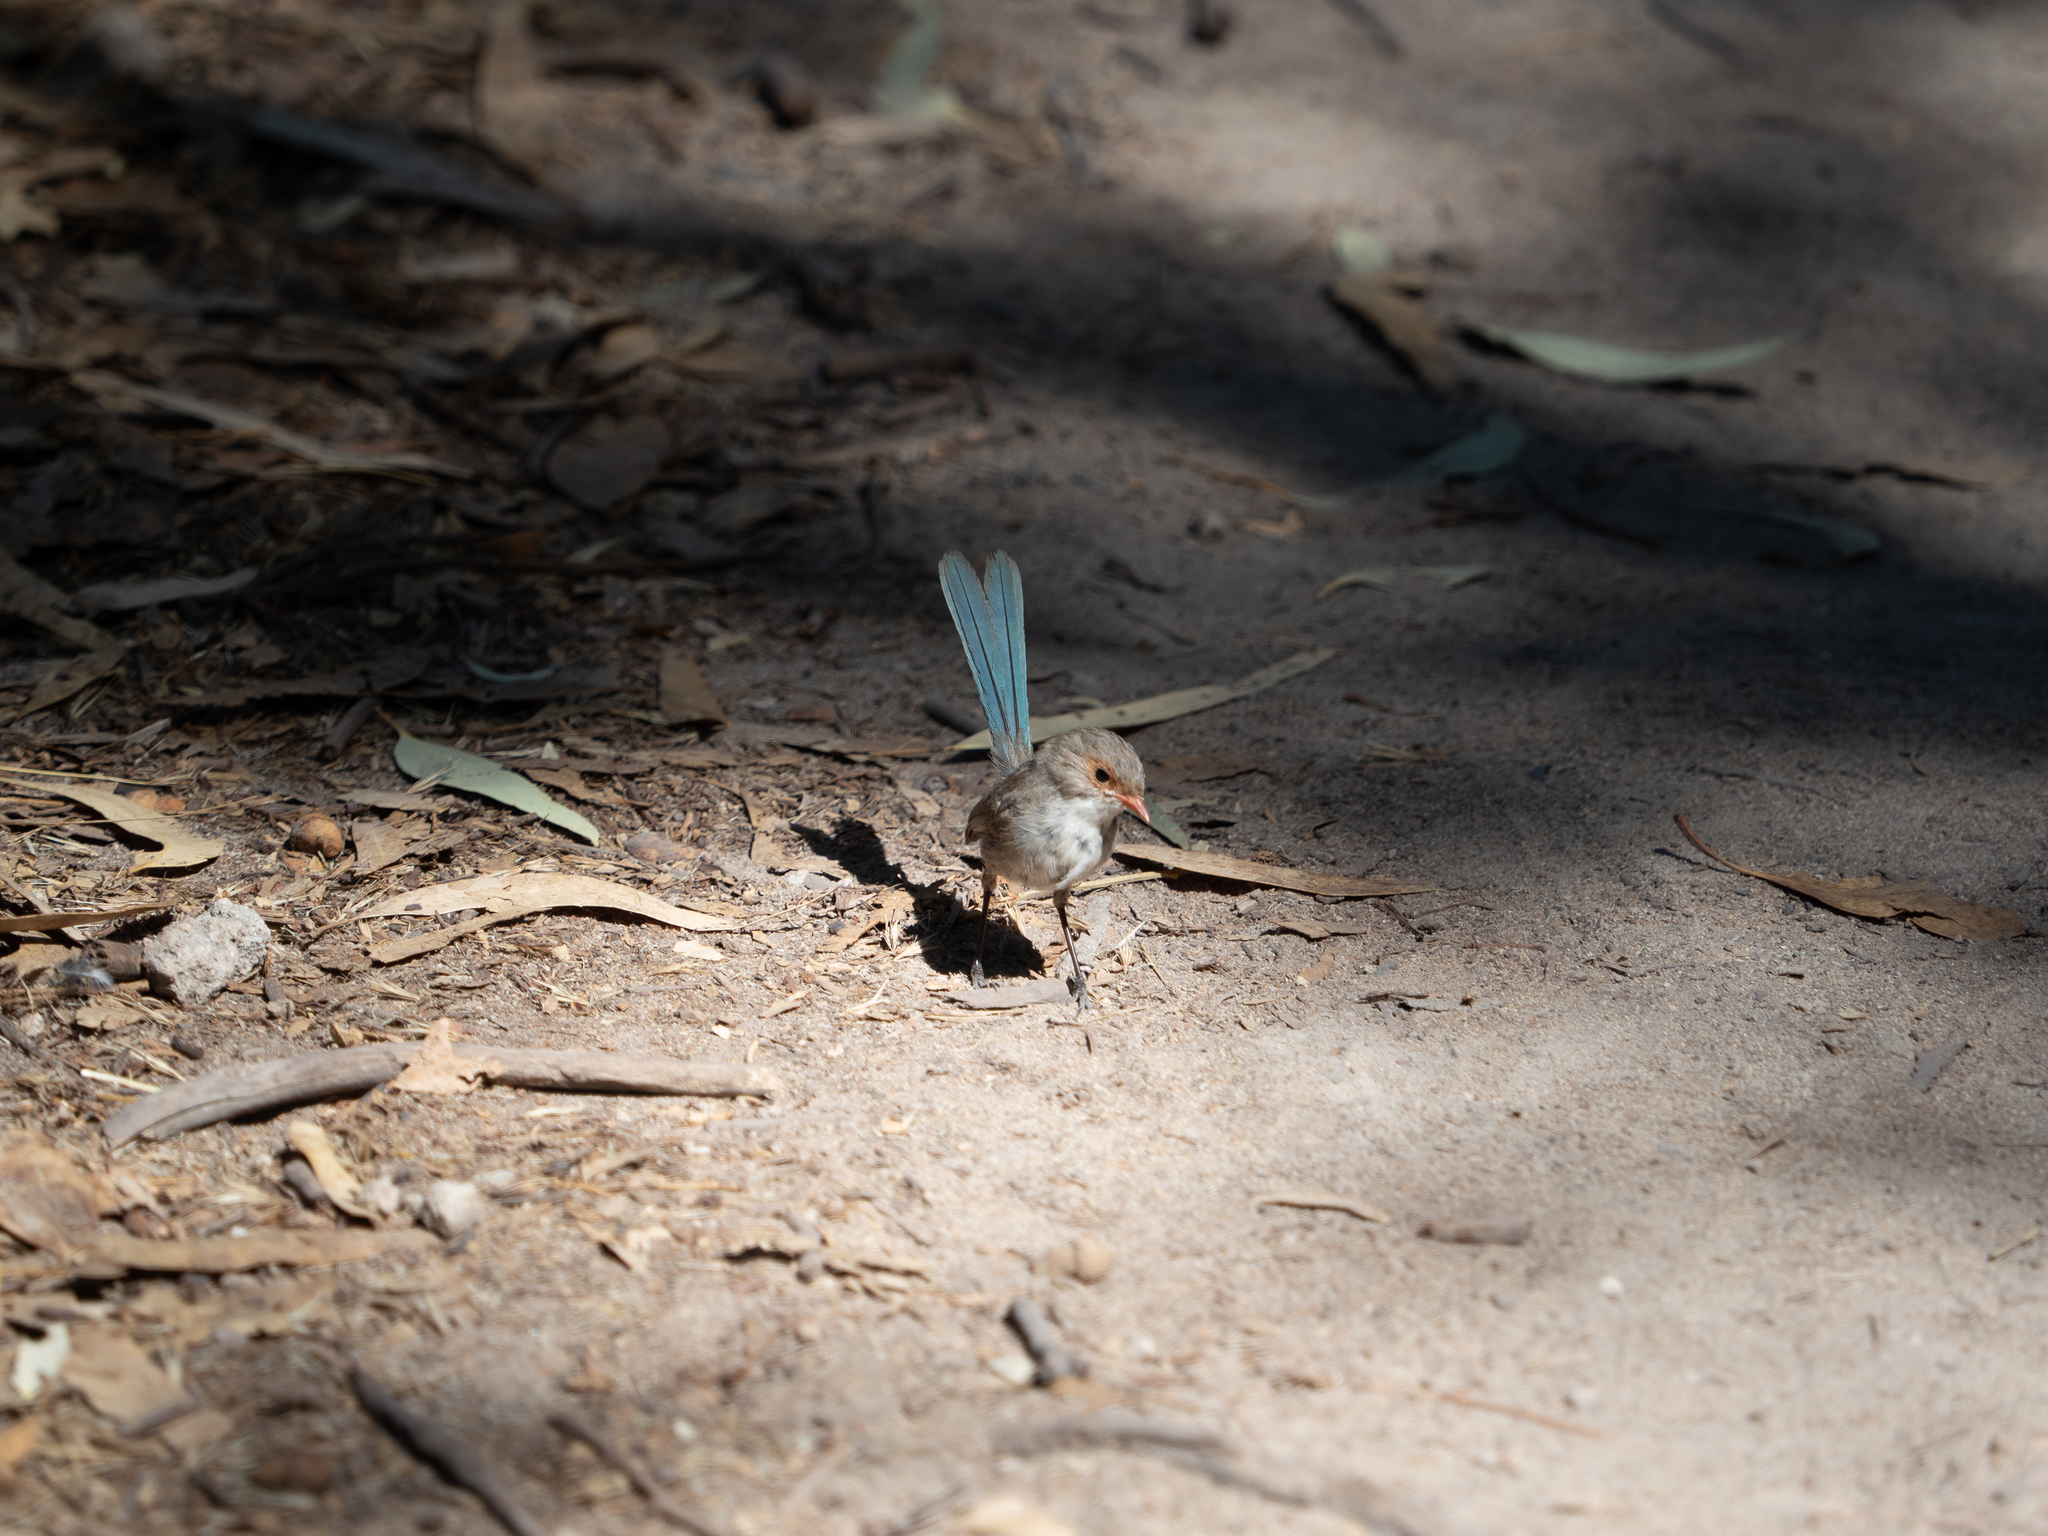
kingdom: Animalia
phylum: Chordata
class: Aves
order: Passeriformes
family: Maluridae
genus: Malurus
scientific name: Malurus splendens
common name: Splendid fairywren
